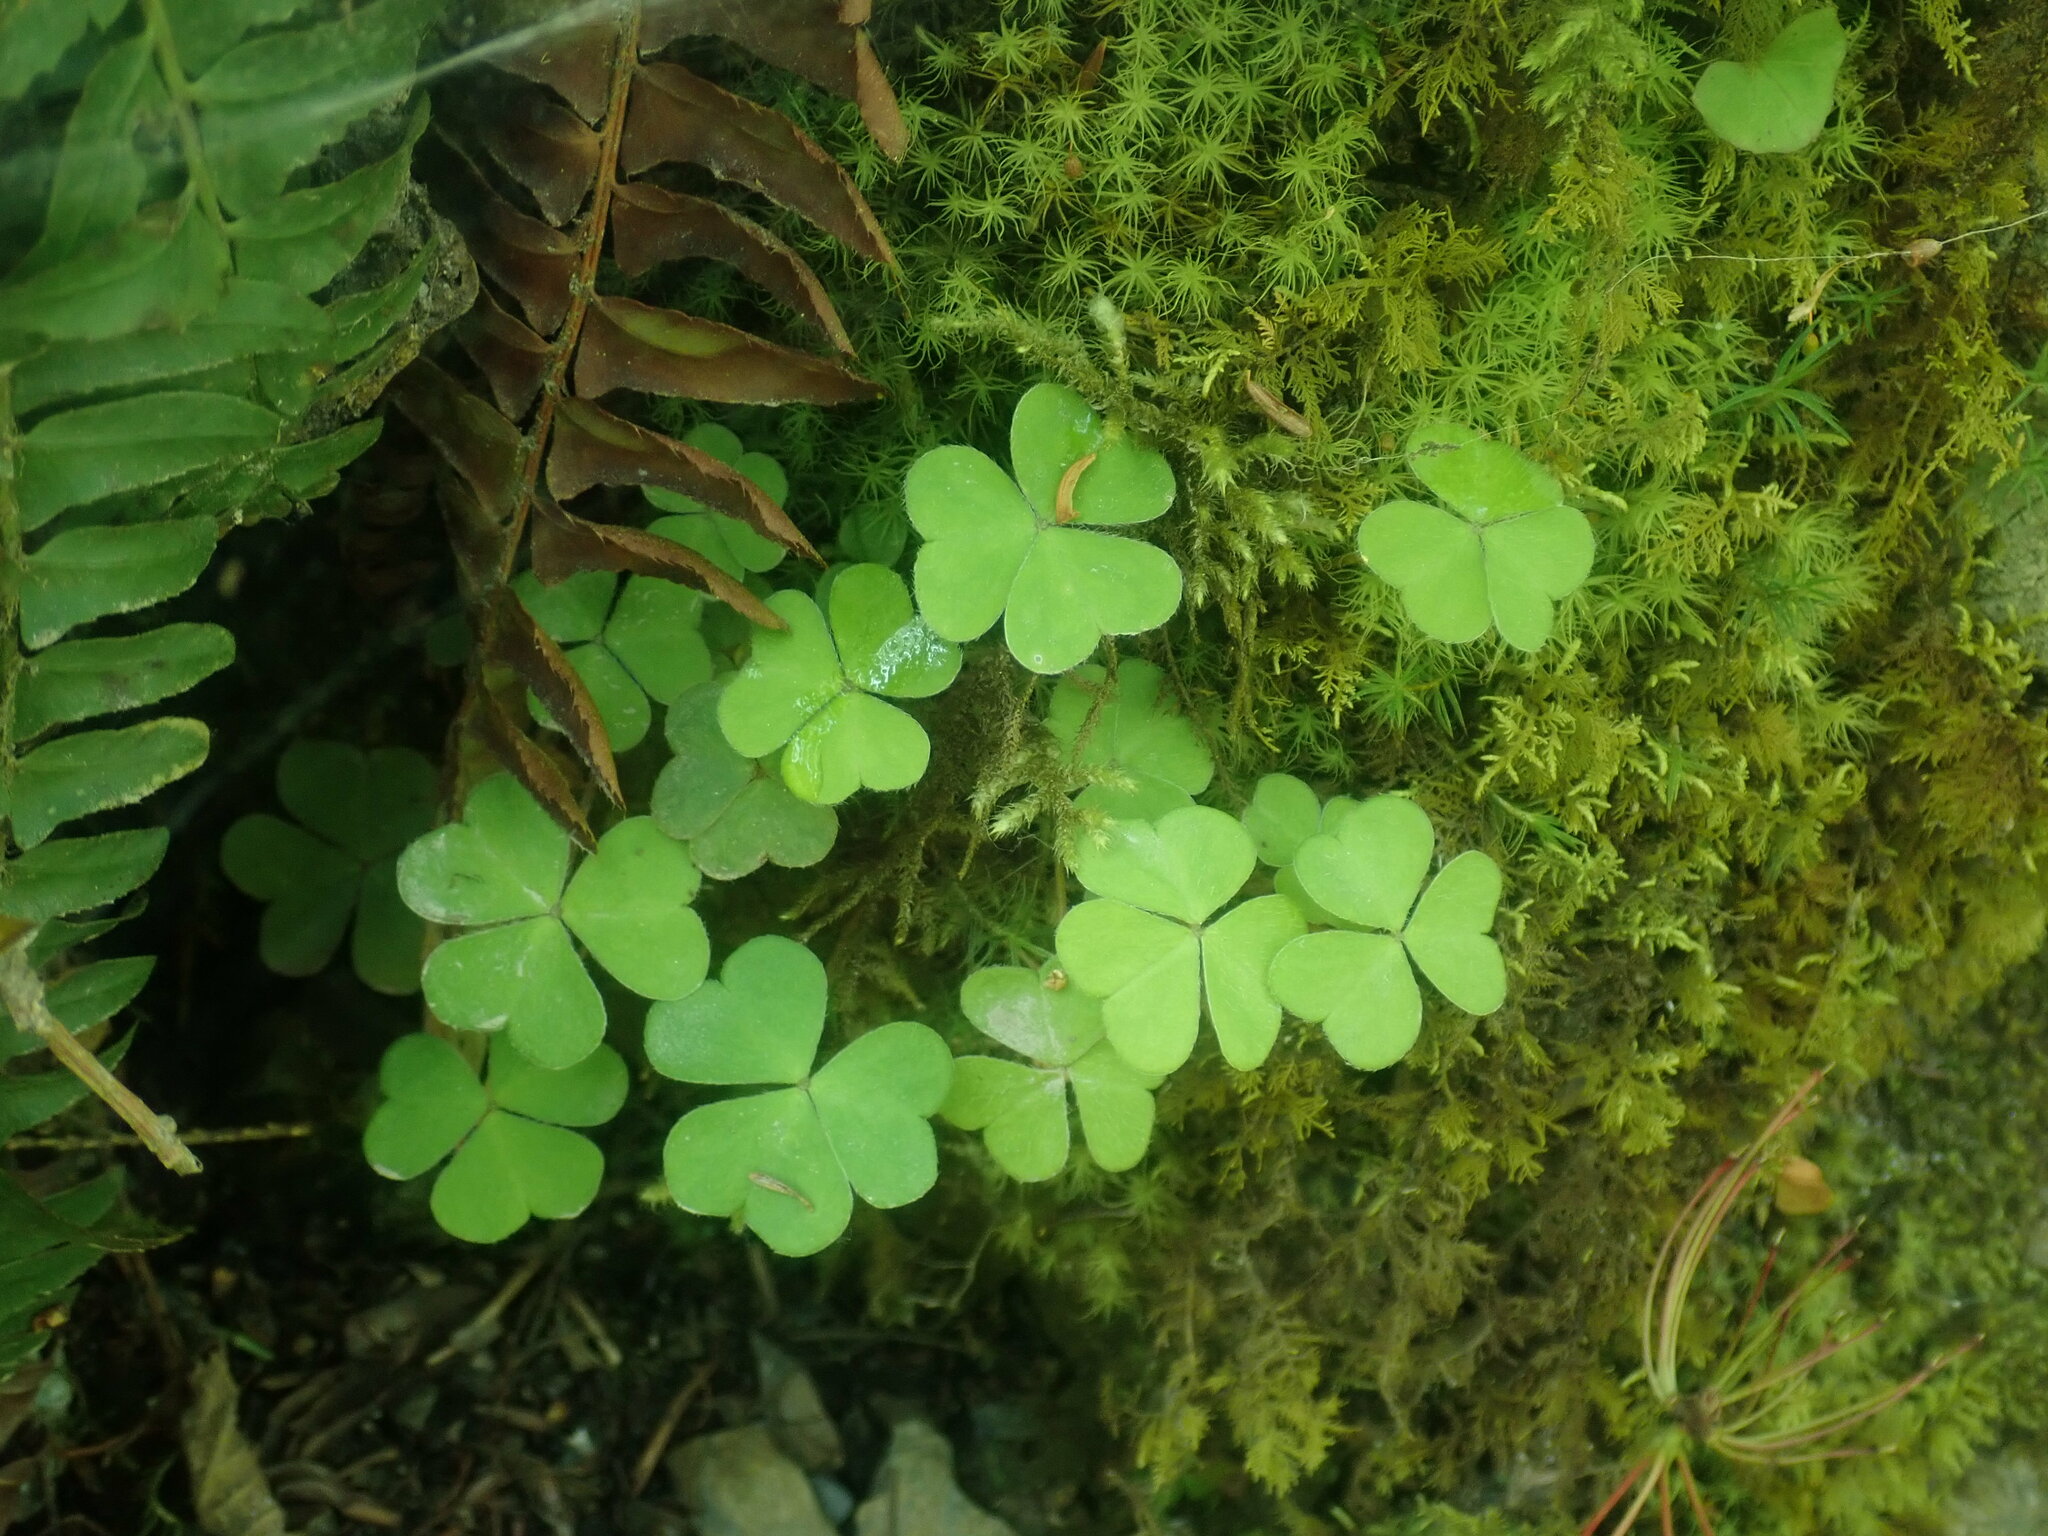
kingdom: Plantae
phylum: Tracheophyta
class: Magnoliopsida
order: Oxalidales
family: Oxalidaceae
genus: Oxalis
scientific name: Oxalis montana
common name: American wood-sorrel
